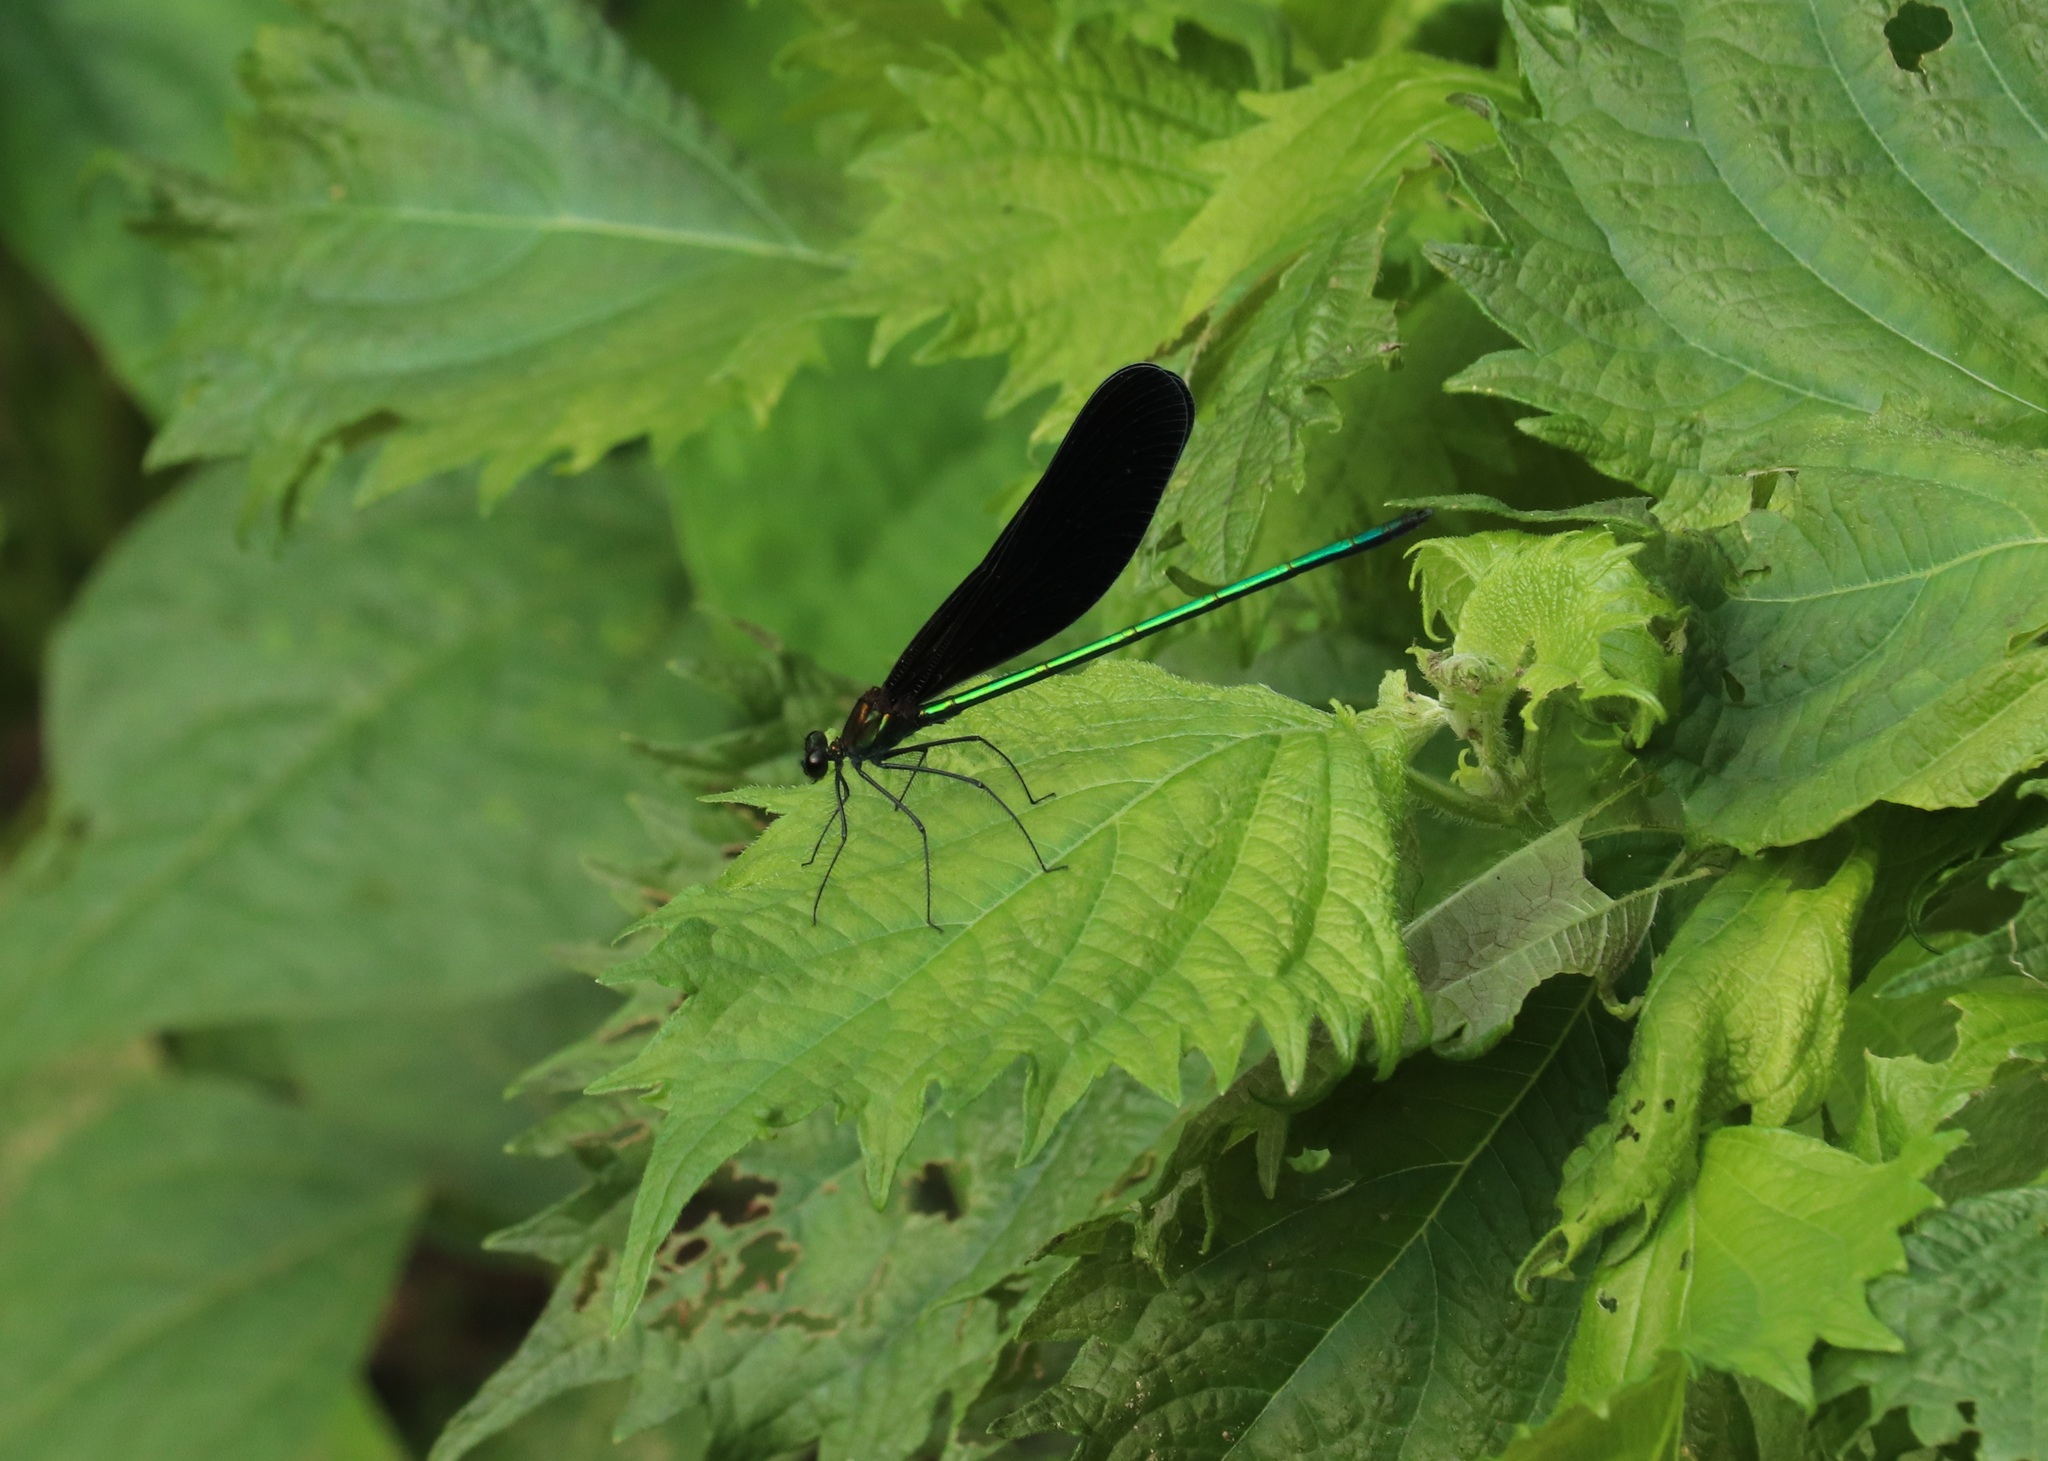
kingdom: Animalia
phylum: Arthropoda
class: Insecta
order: Odonata
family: Calopterygidae
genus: Atrocalopteryx
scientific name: Atrocalopteryx atrata
